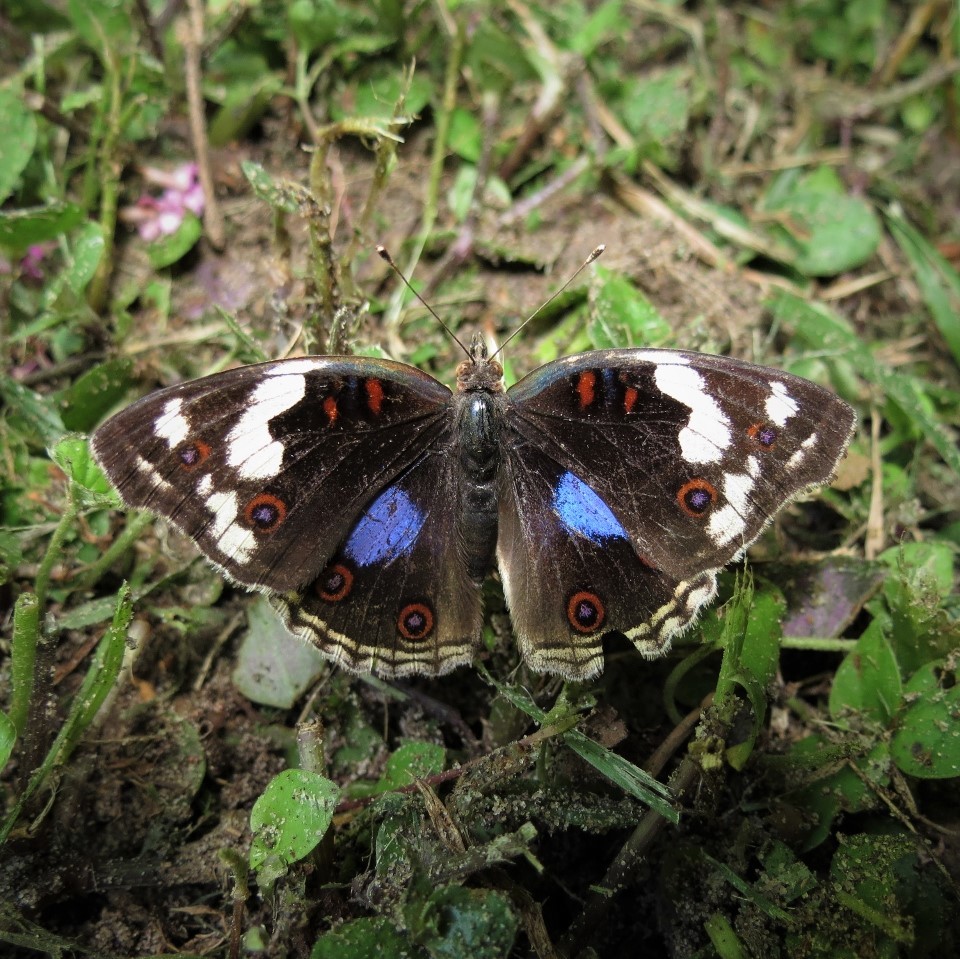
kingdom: Animalia
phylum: Arthropoda
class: Insecta
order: Lepidoptera
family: Nymphalidae
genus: Junonia
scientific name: Junonia oenone
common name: Dark blue pansy
